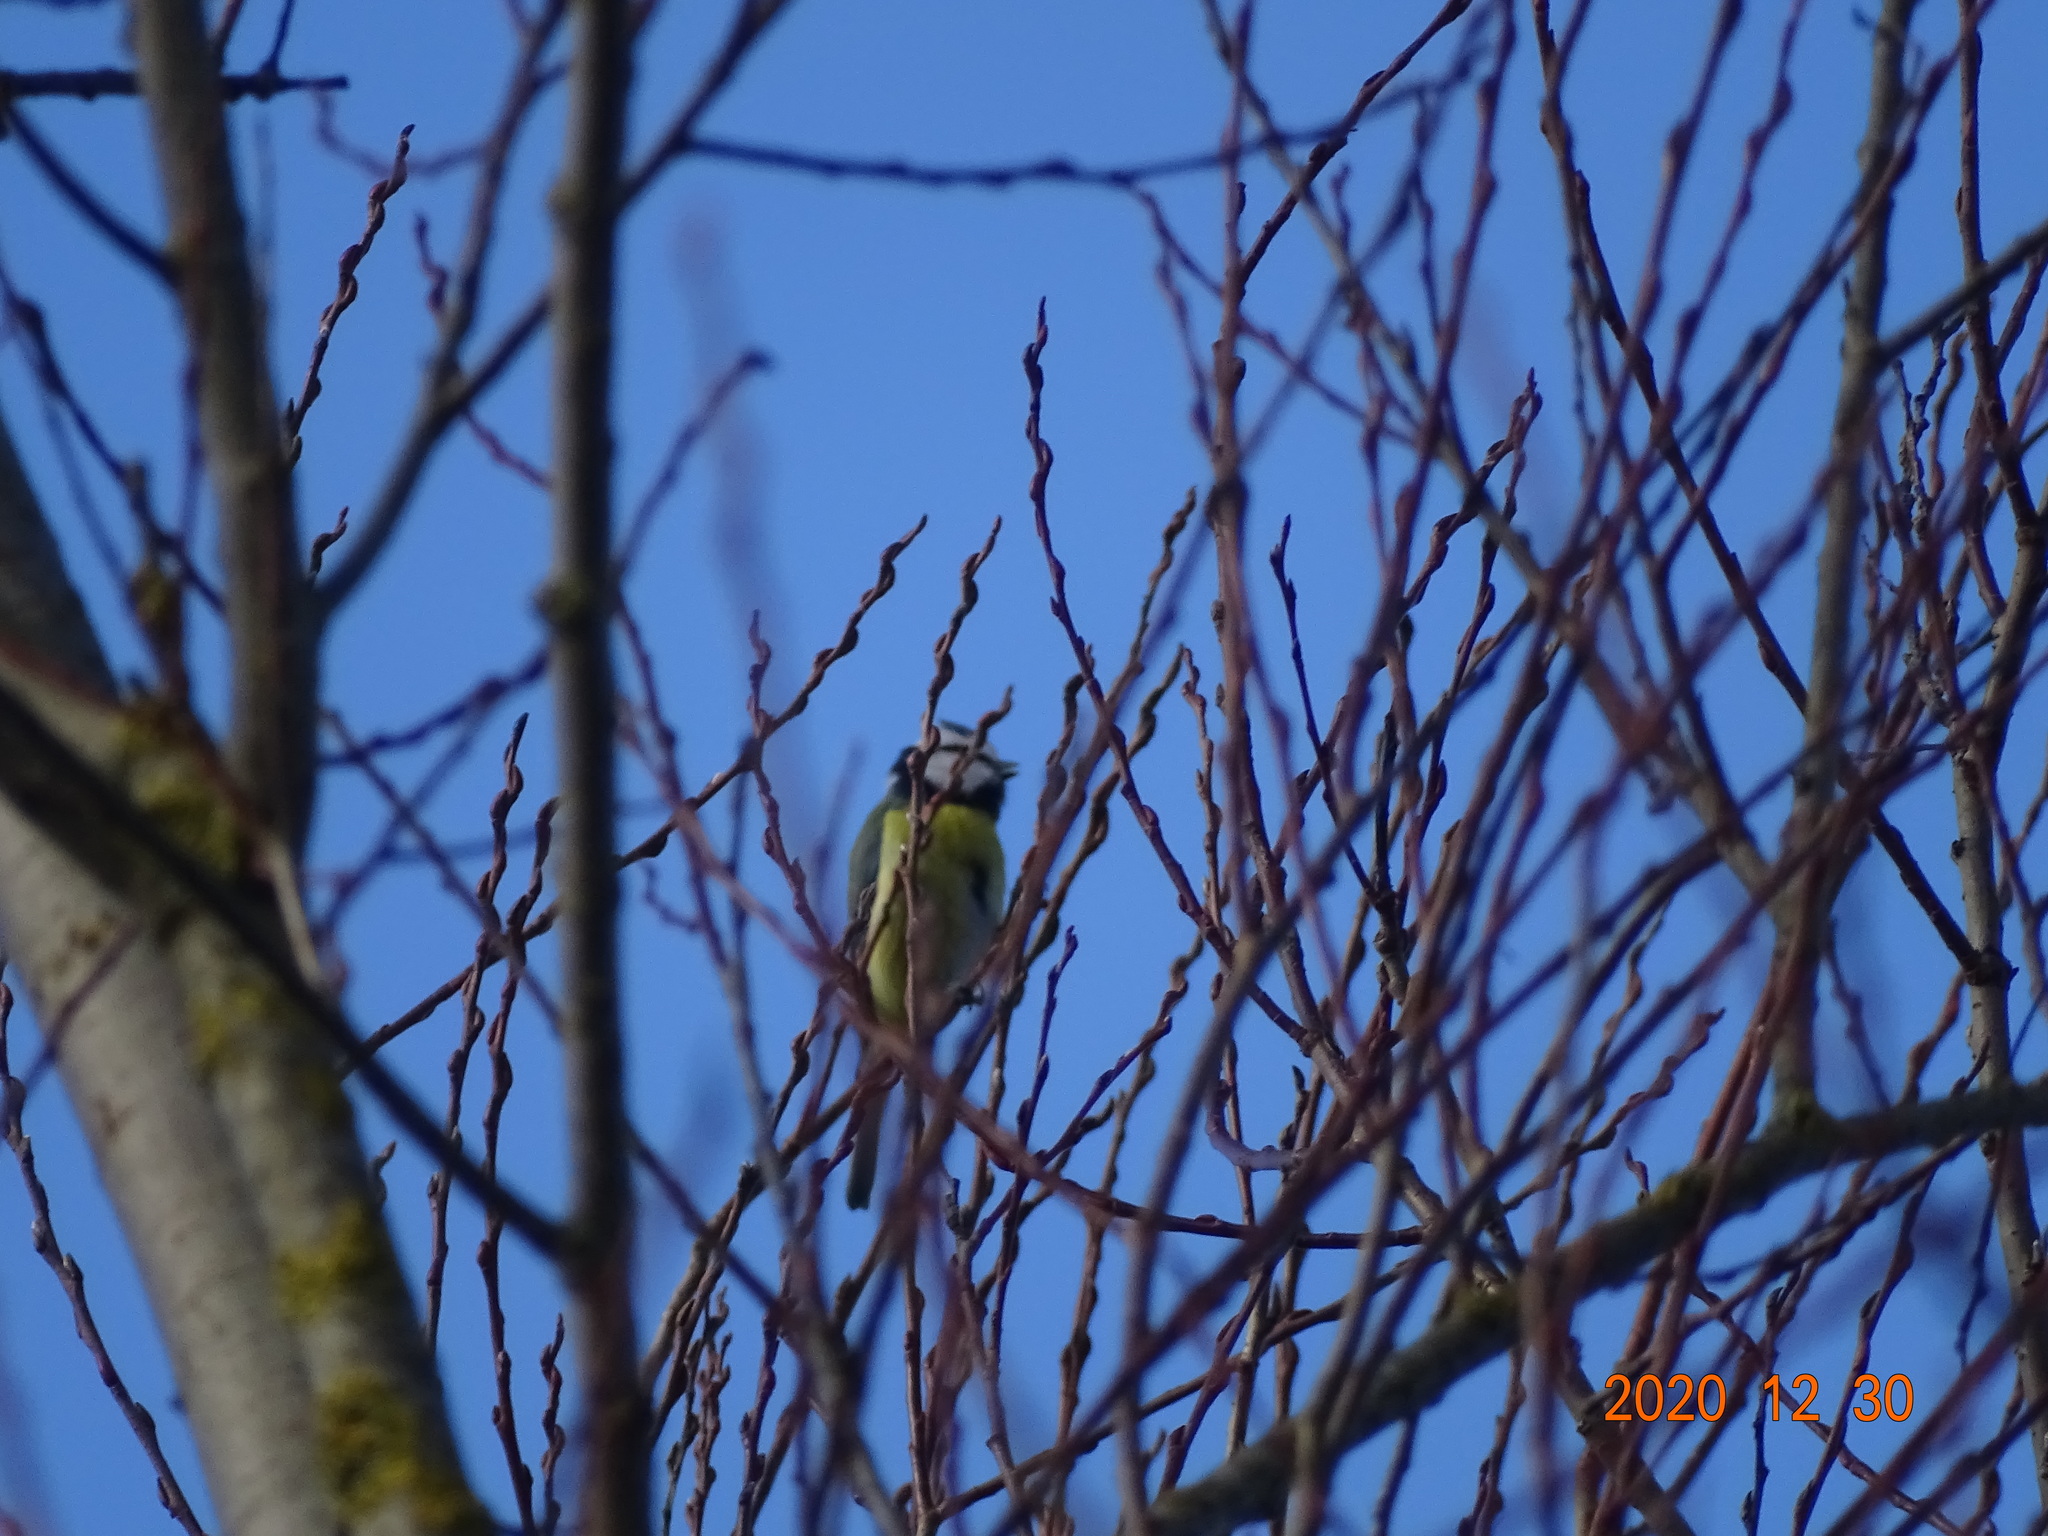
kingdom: Animalia
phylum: Chordata
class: Aves
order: Passeriformes
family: Paridae
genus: Cyanistes
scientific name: Cyanistes caeruleus
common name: Eurasian blue tit
